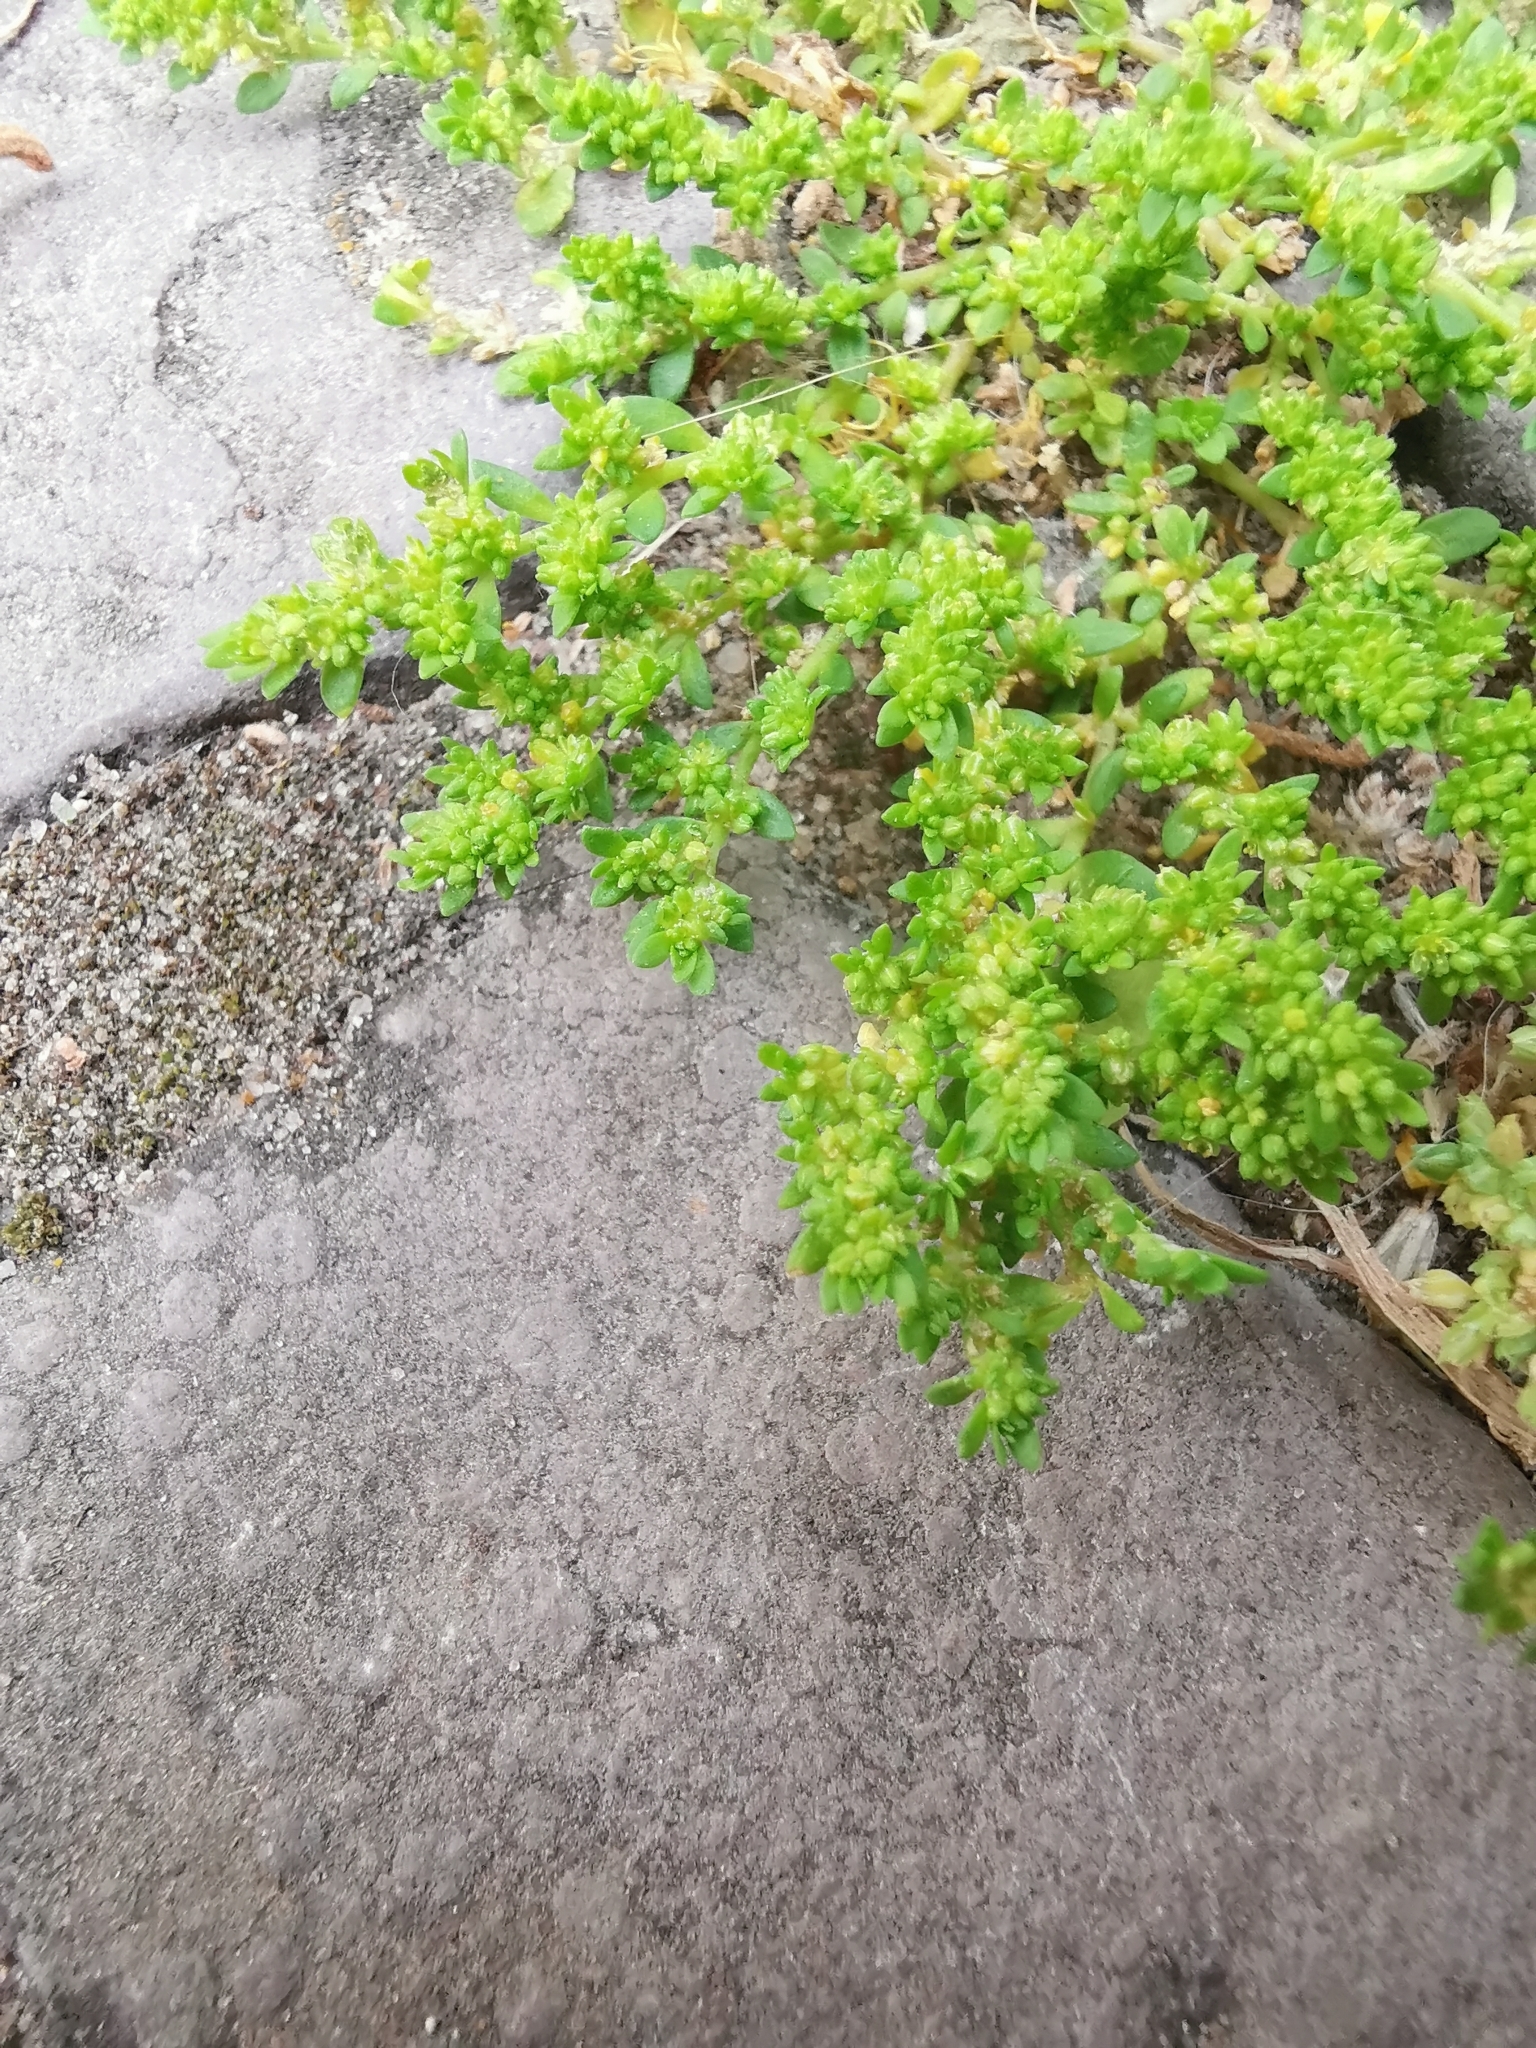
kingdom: Plantae
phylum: Tracheophyta
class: Magnoliopsida
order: Caryophyllales
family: Caryophyllaceae
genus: Herniaria
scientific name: Herniaria glabra
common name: Smooth rupturewort
